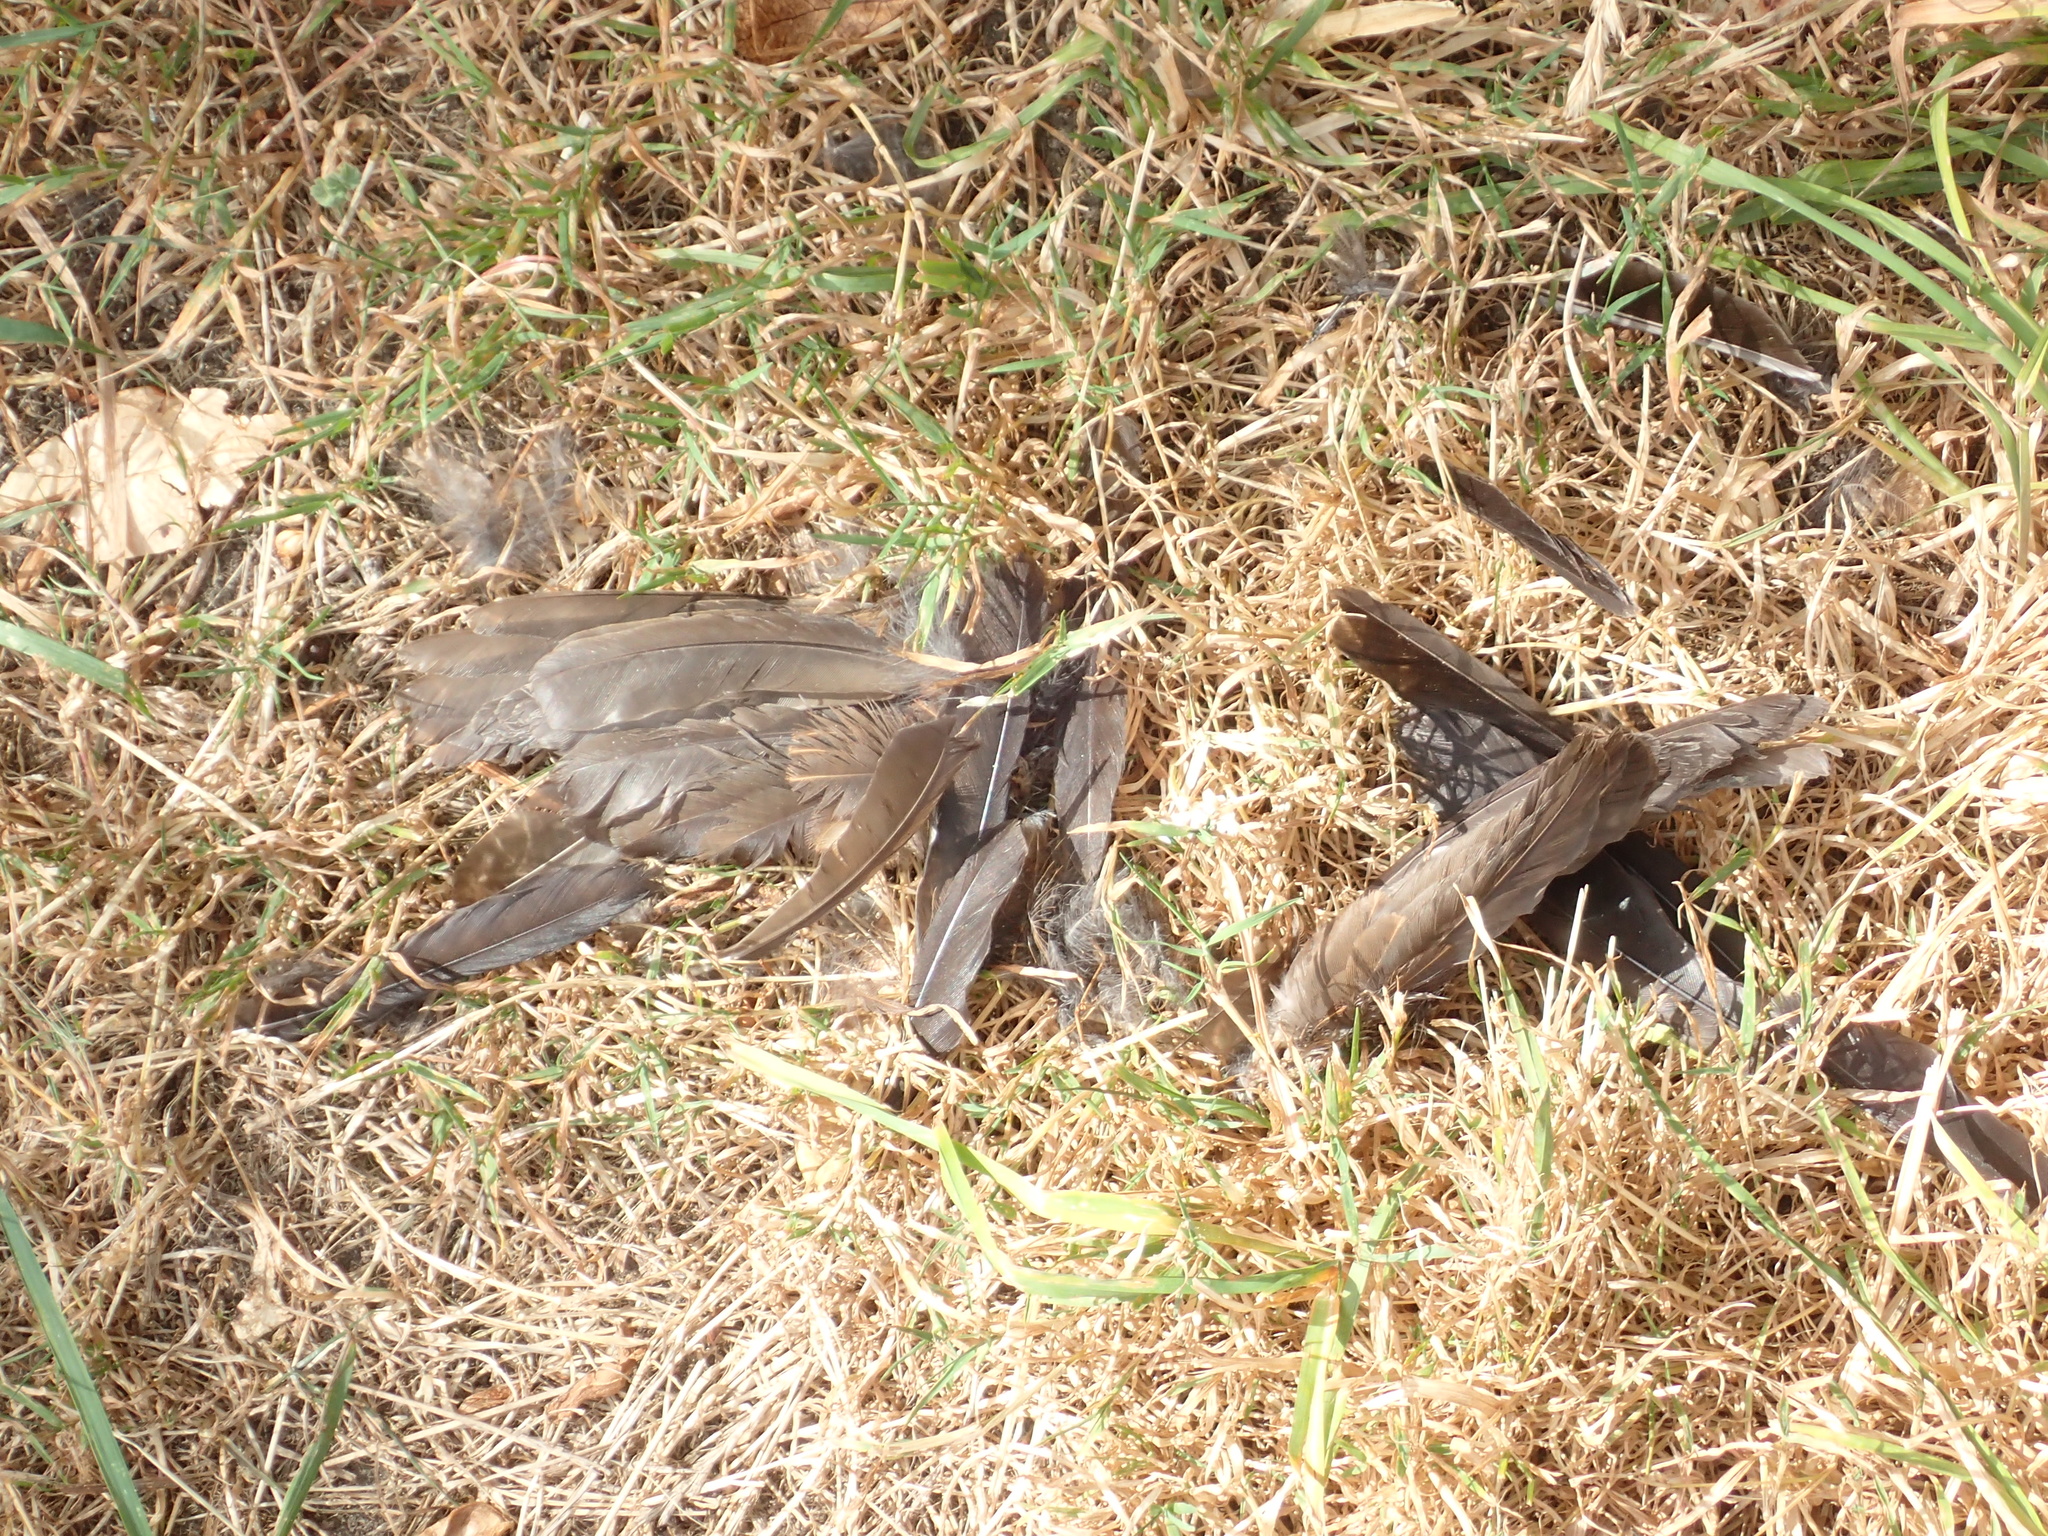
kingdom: Animalia
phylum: Chordata
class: Aves
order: Passeriformes
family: Turdidae
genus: Turdus
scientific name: Turdus merula
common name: Common blackbird
